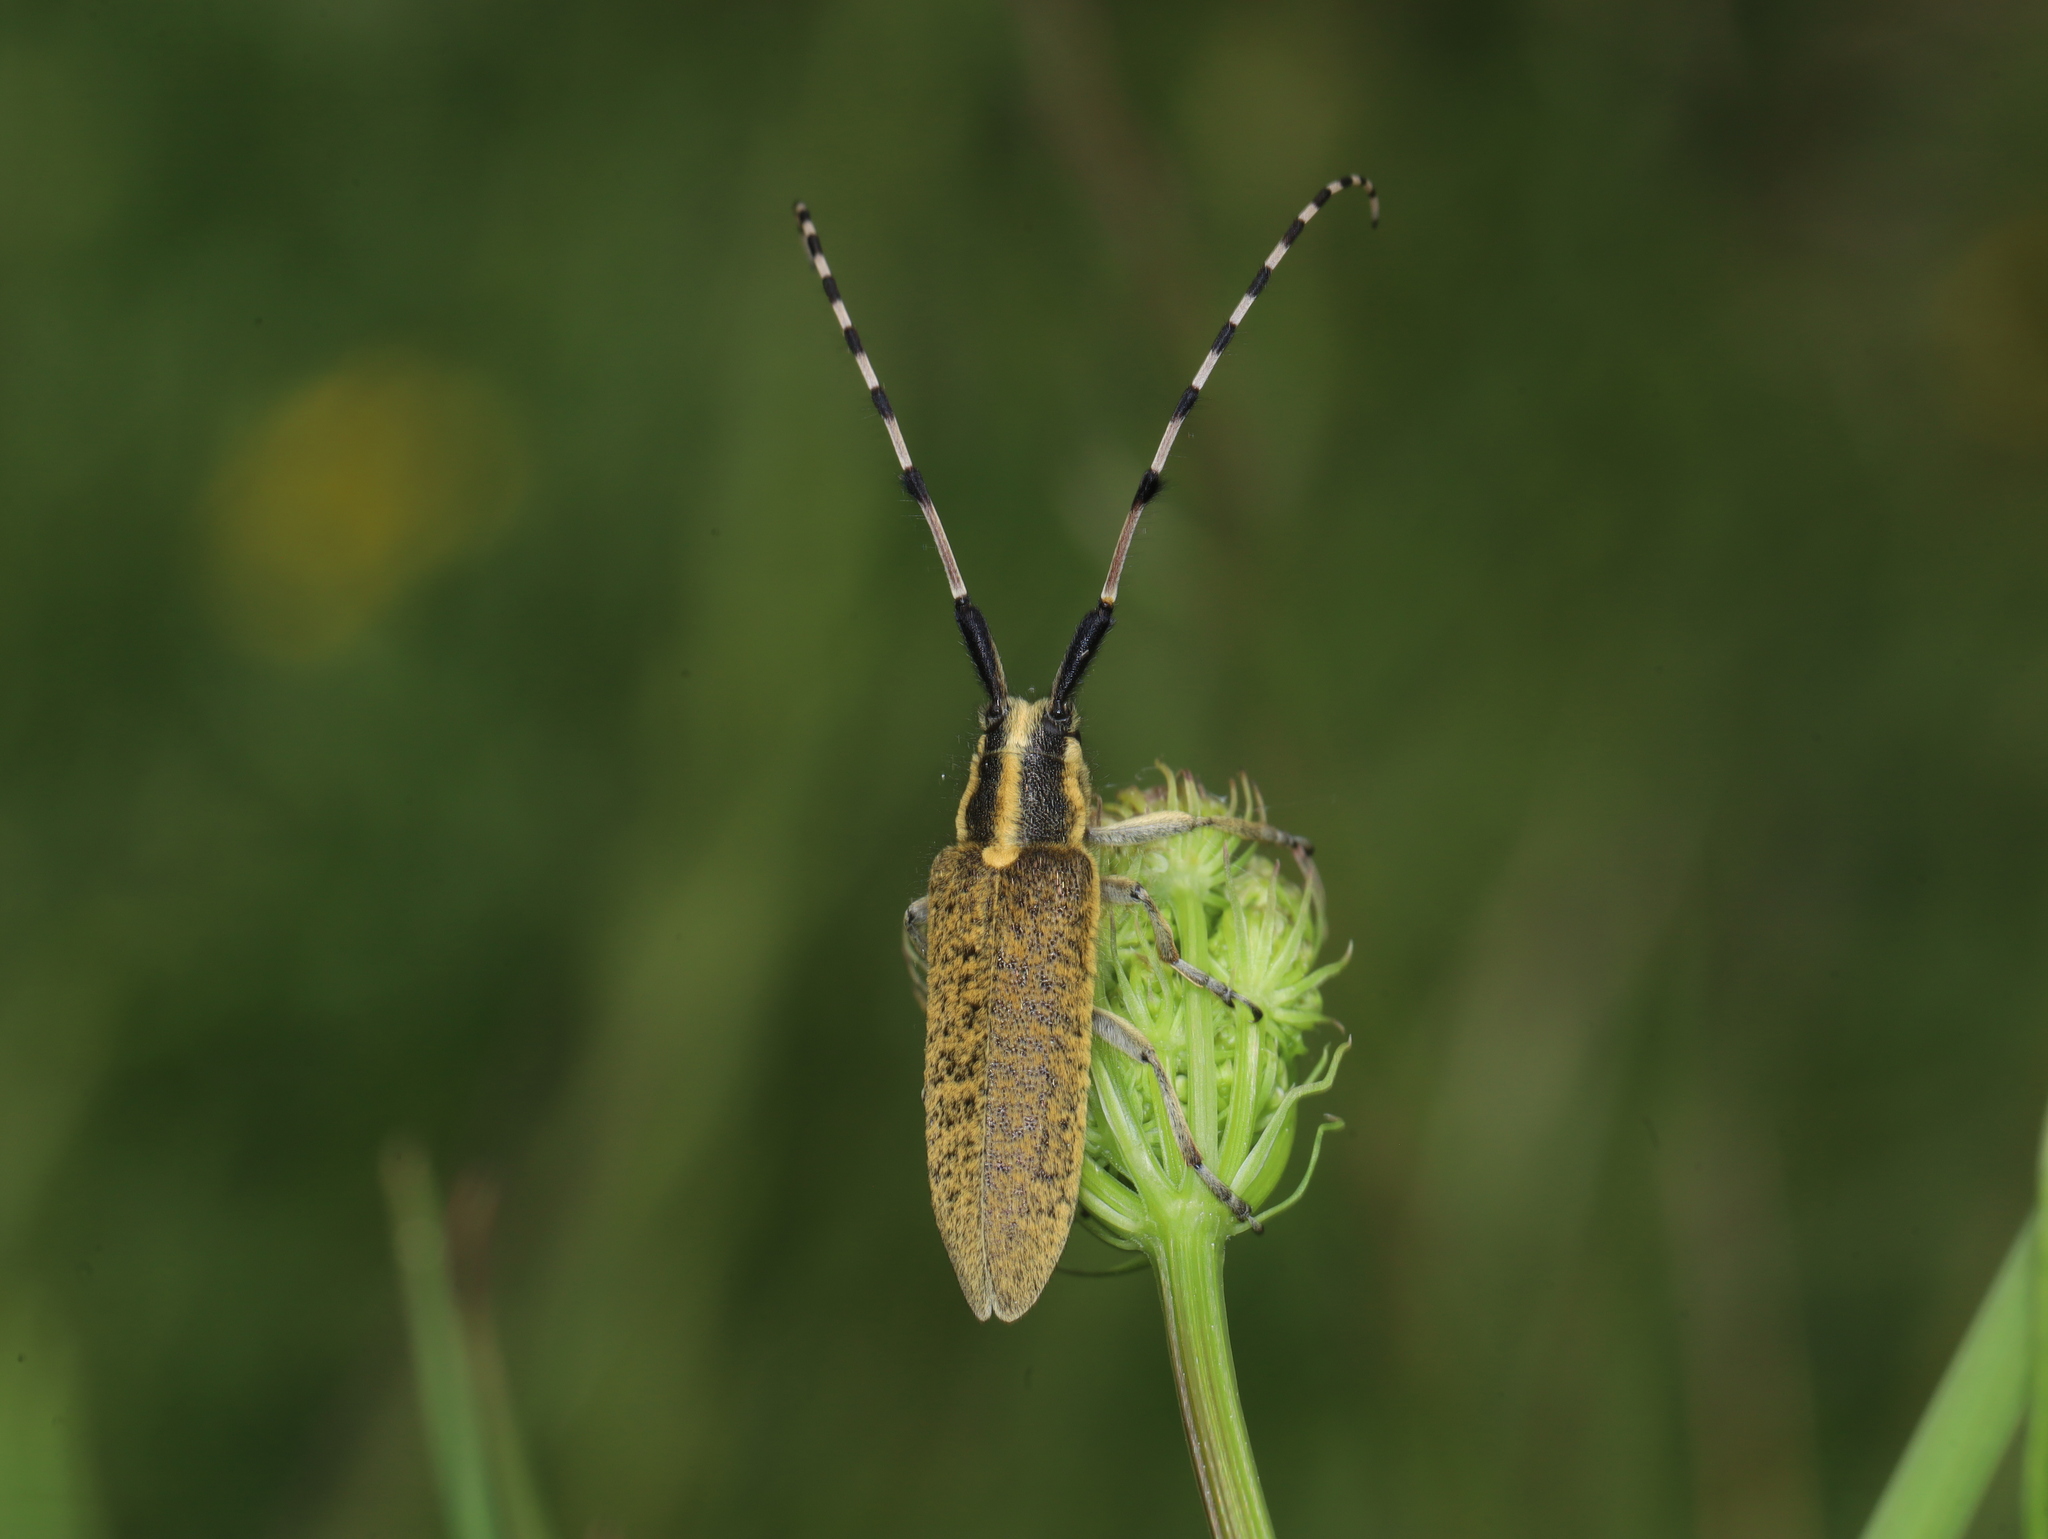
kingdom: Animalia
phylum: Arthropoda
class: Insecta
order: Coleoptera
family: Cerambycidae
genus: Agapanthia
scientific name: Agapanthia dahlii
